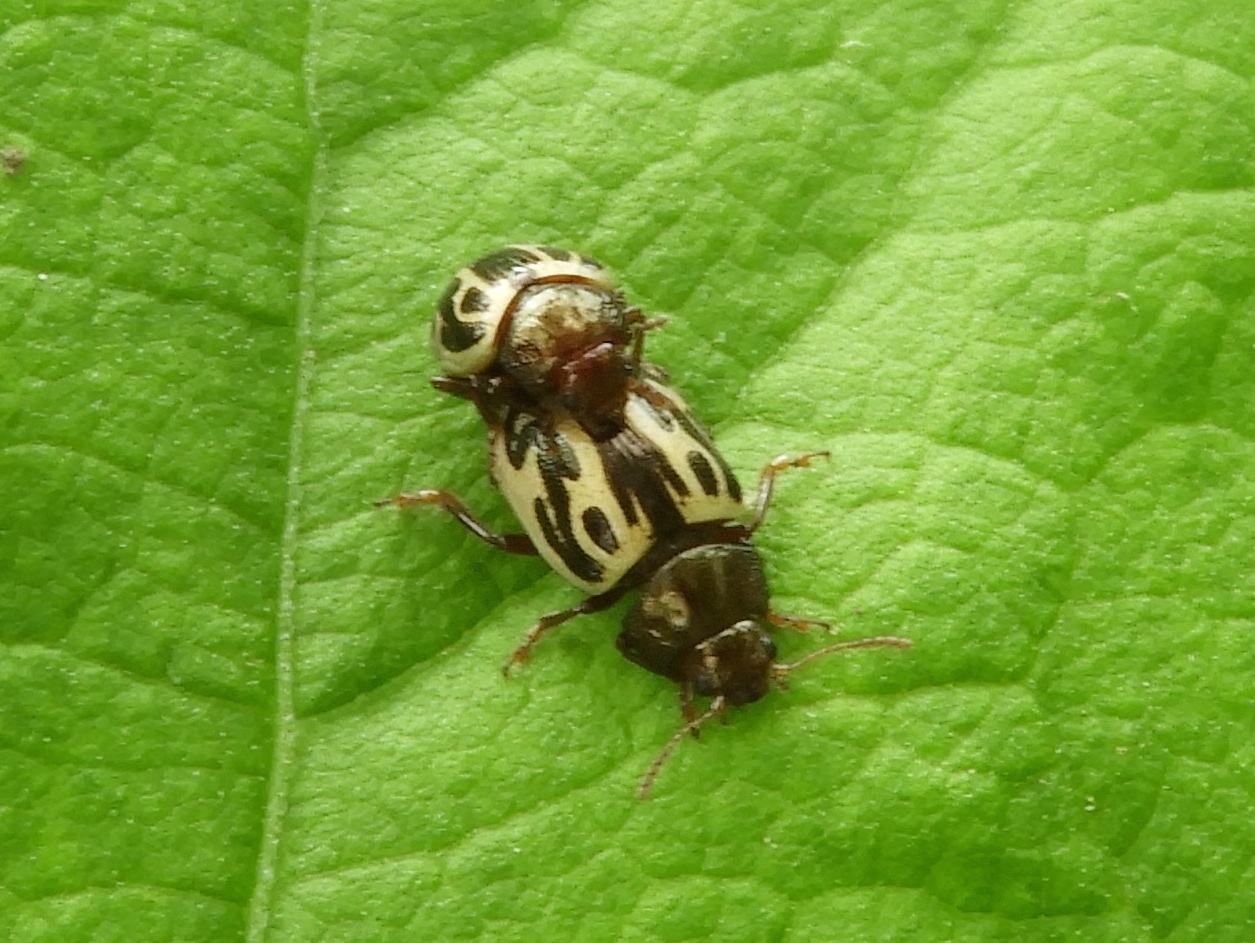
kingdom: Animalia
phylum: Arthropoda
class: Insecta
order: Coleoptera
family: Chrysomelidae
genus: Calligrapha
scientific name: Calligrapha
